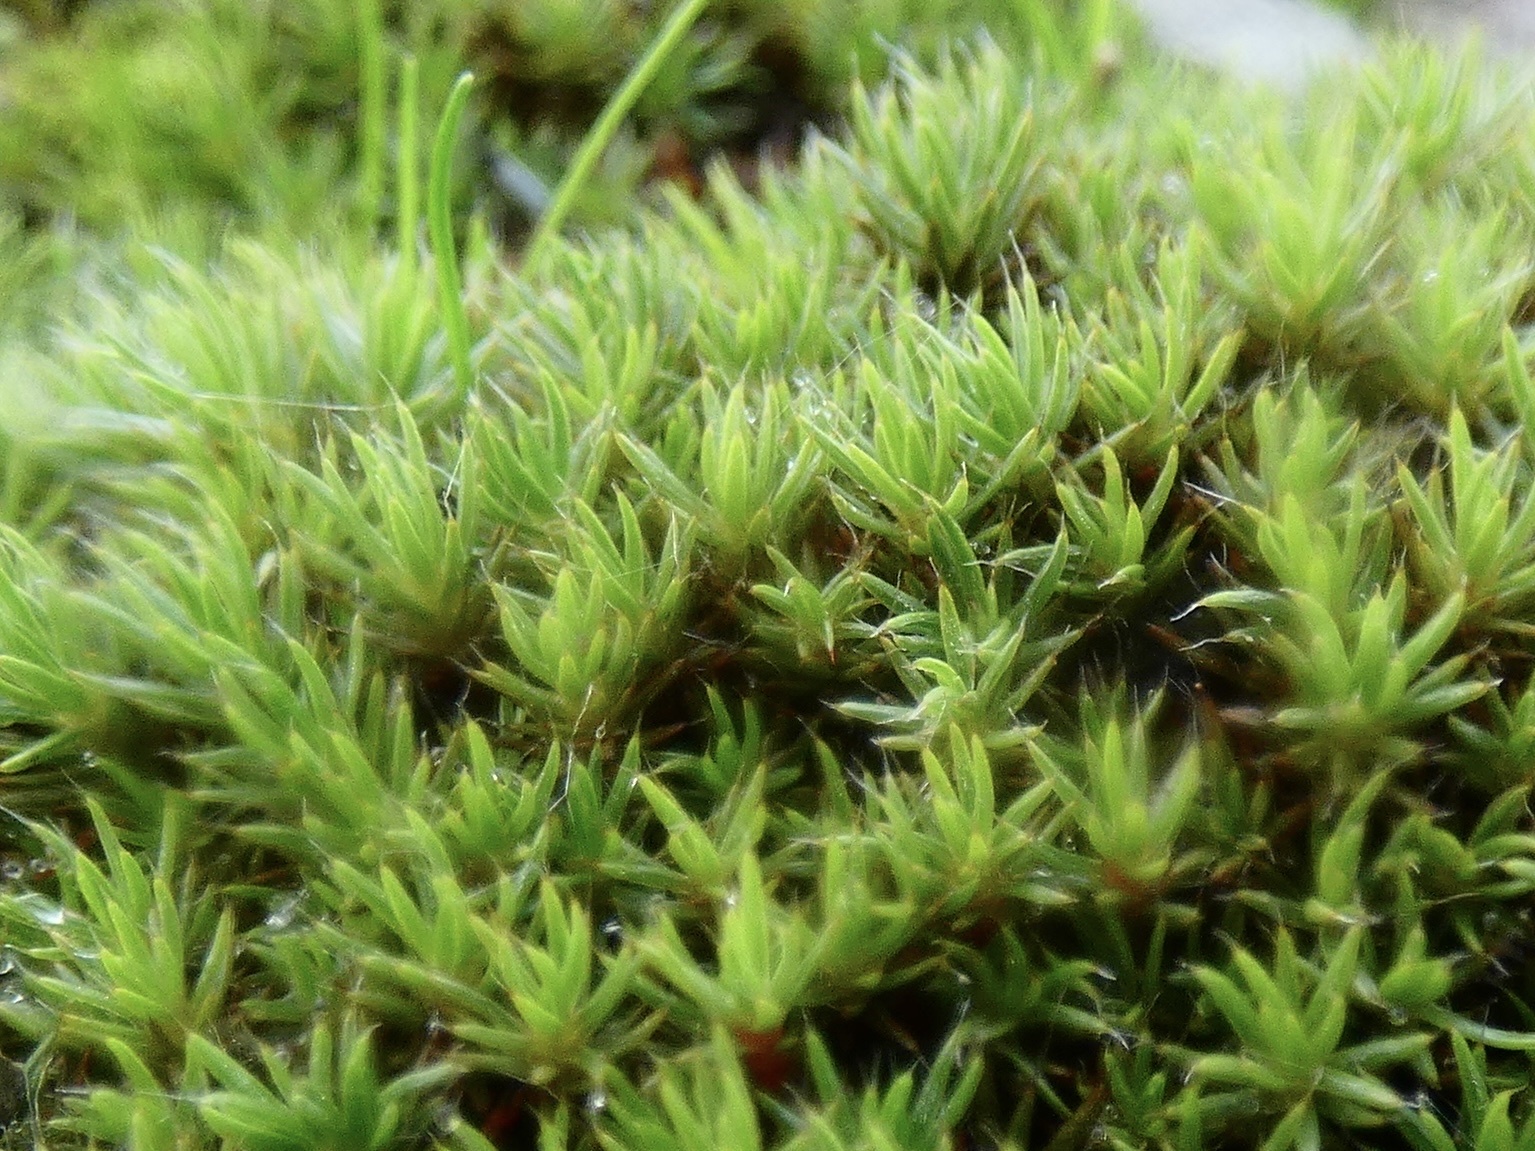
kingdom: Plantae
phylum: Bryophyta
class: Polytrichopsida
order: Polytrichales
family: Polytrichaceae
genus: Polytrichum
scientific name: Polytrichum piliferum
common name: Bristly haircap
